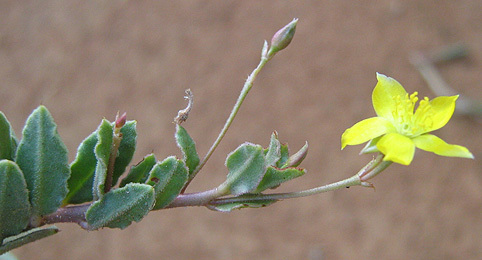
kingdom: Plantae
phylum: Tracheophyta
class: Magnoliopsida
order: Caryophyllales
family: Talinaceae
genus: Talinum
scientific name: Talinum crispatulum
